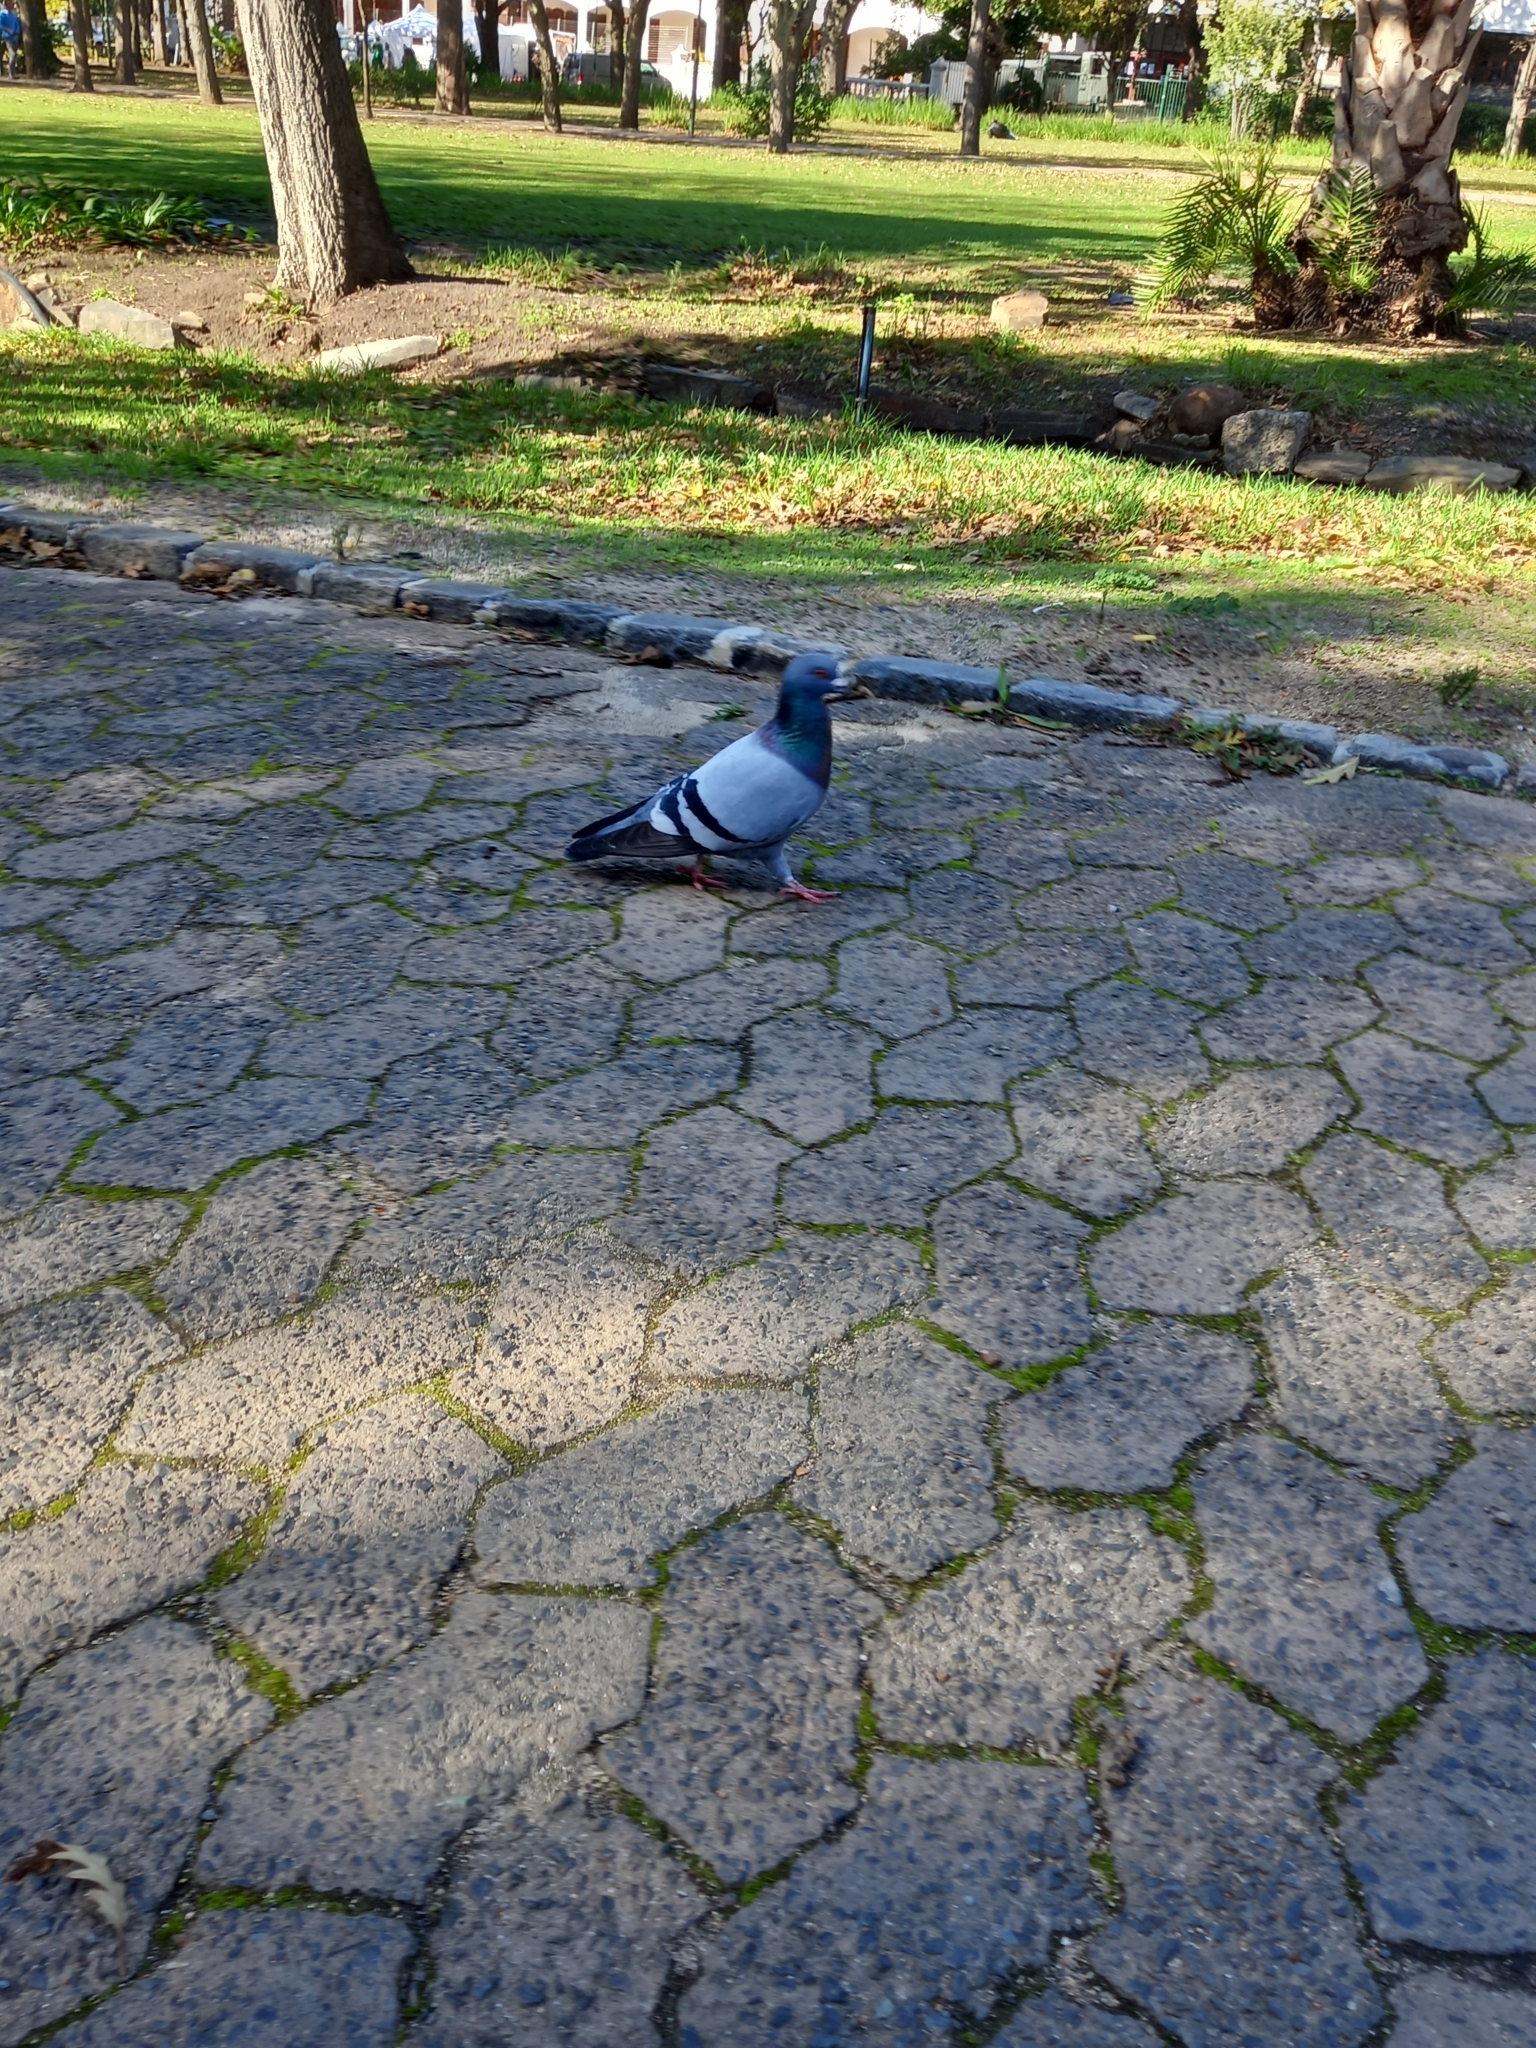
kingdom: Animalia
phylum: Chordata
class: Aves
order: Columbiformes
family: Columbidae
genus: Columba
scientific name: Columba livia
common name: Rock pigeon
